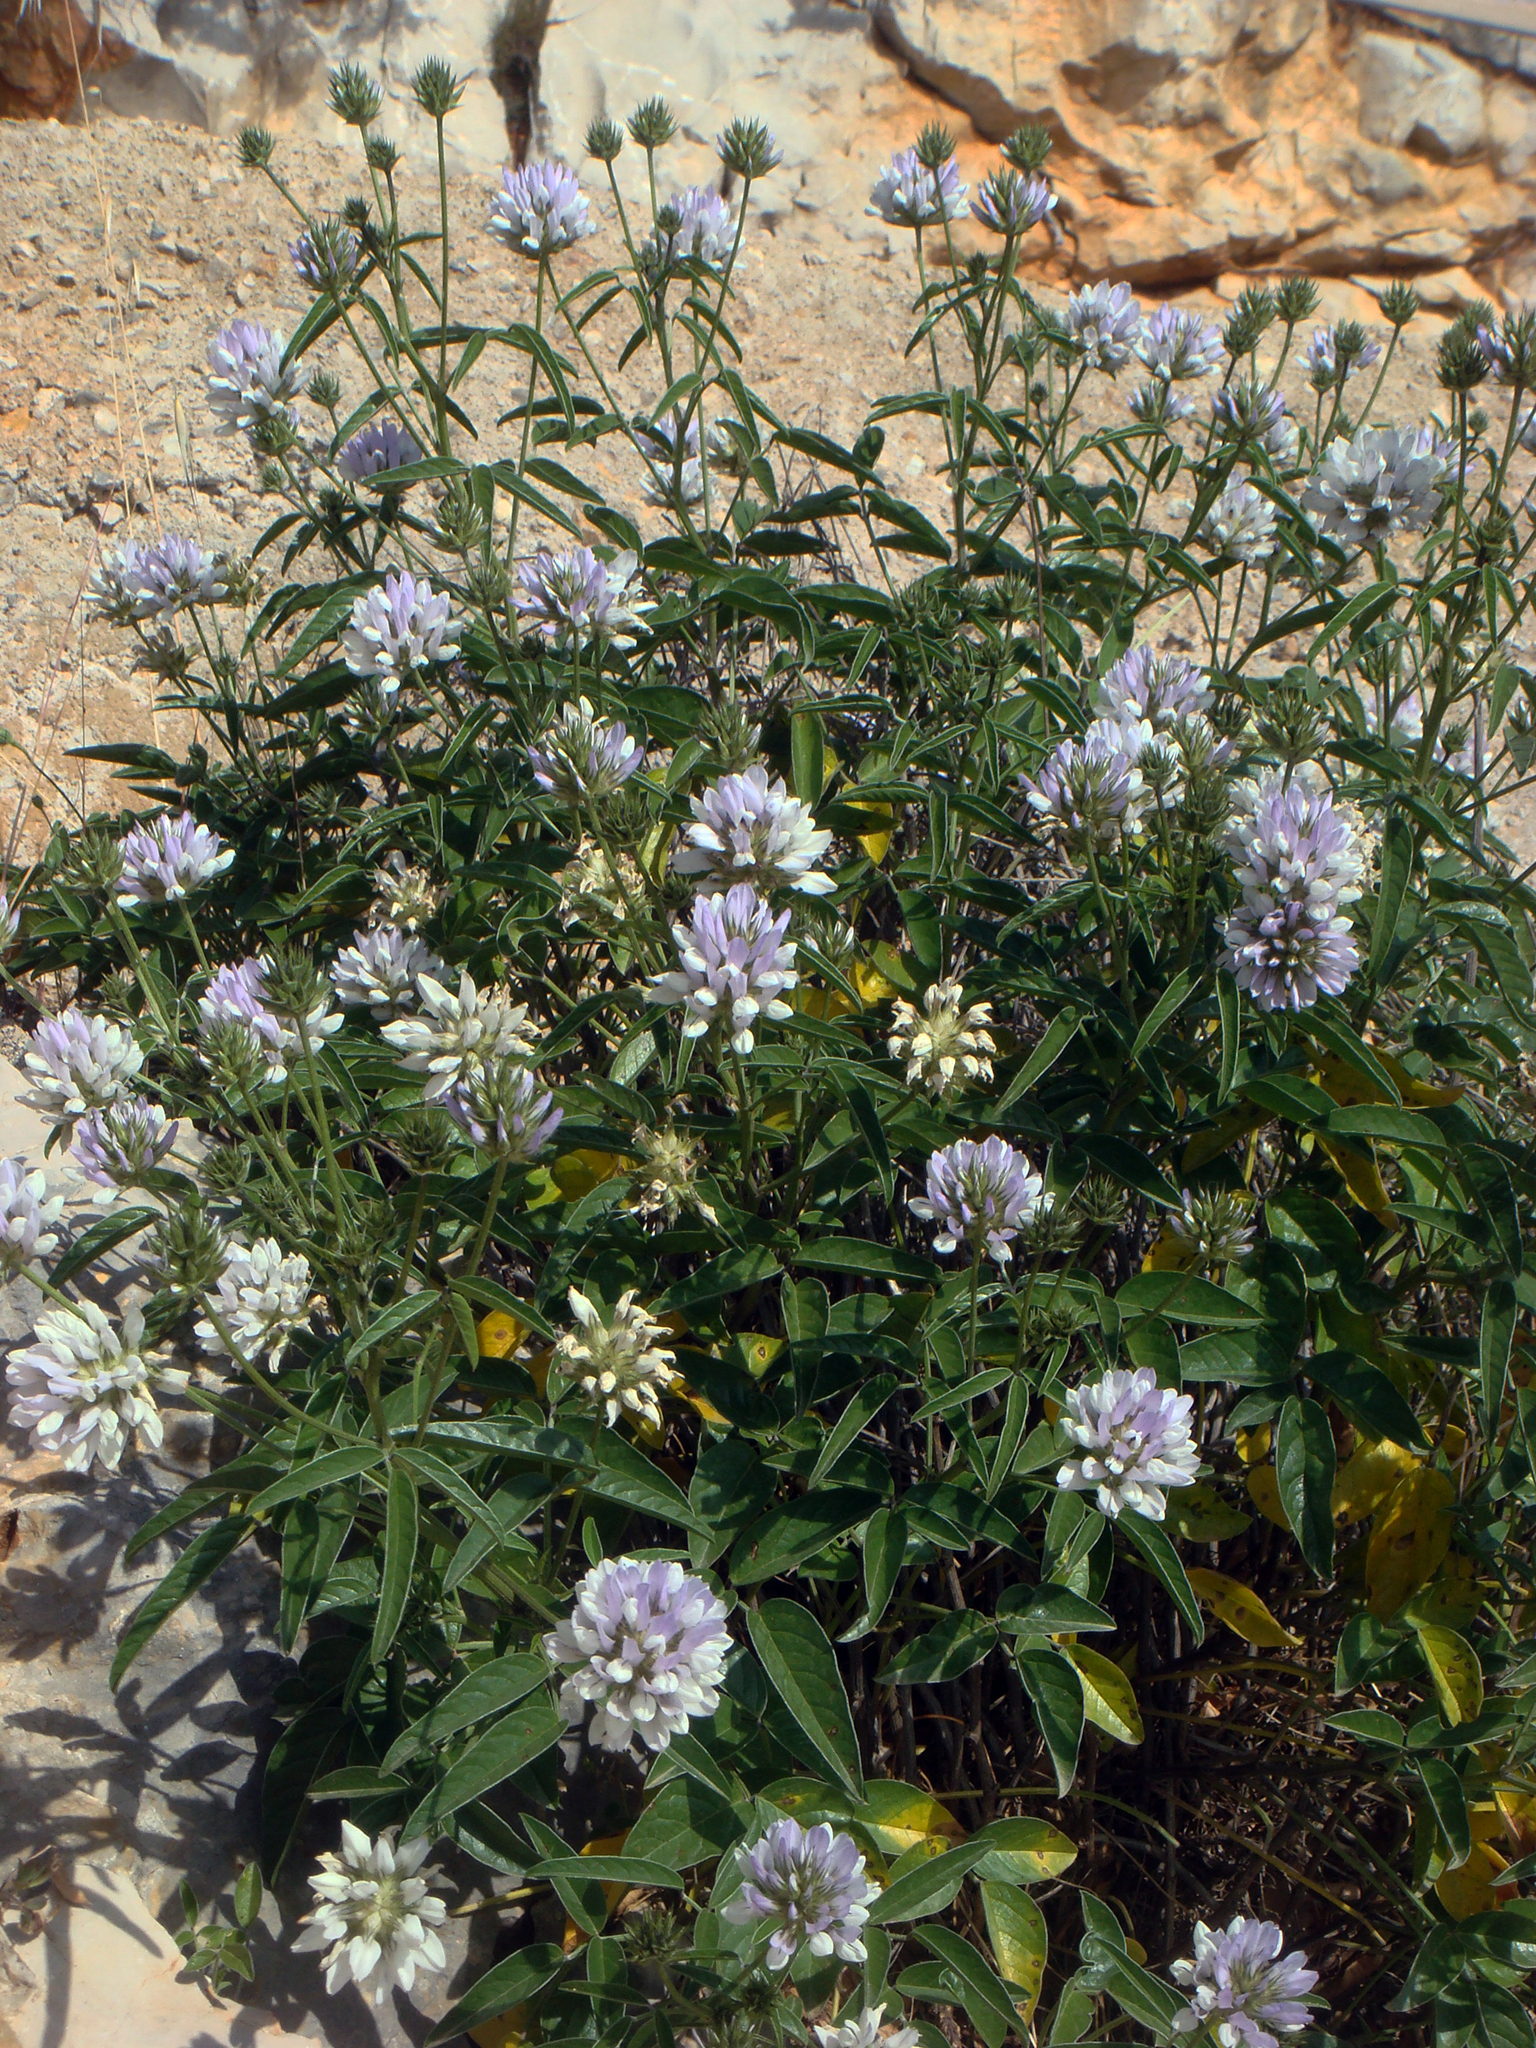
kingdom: Plantae
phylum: Tracheophyta
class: Magnoliopsida
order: Fabales
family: Fabaceae
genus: Bituminaria
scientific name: Bituminaria morisiana
